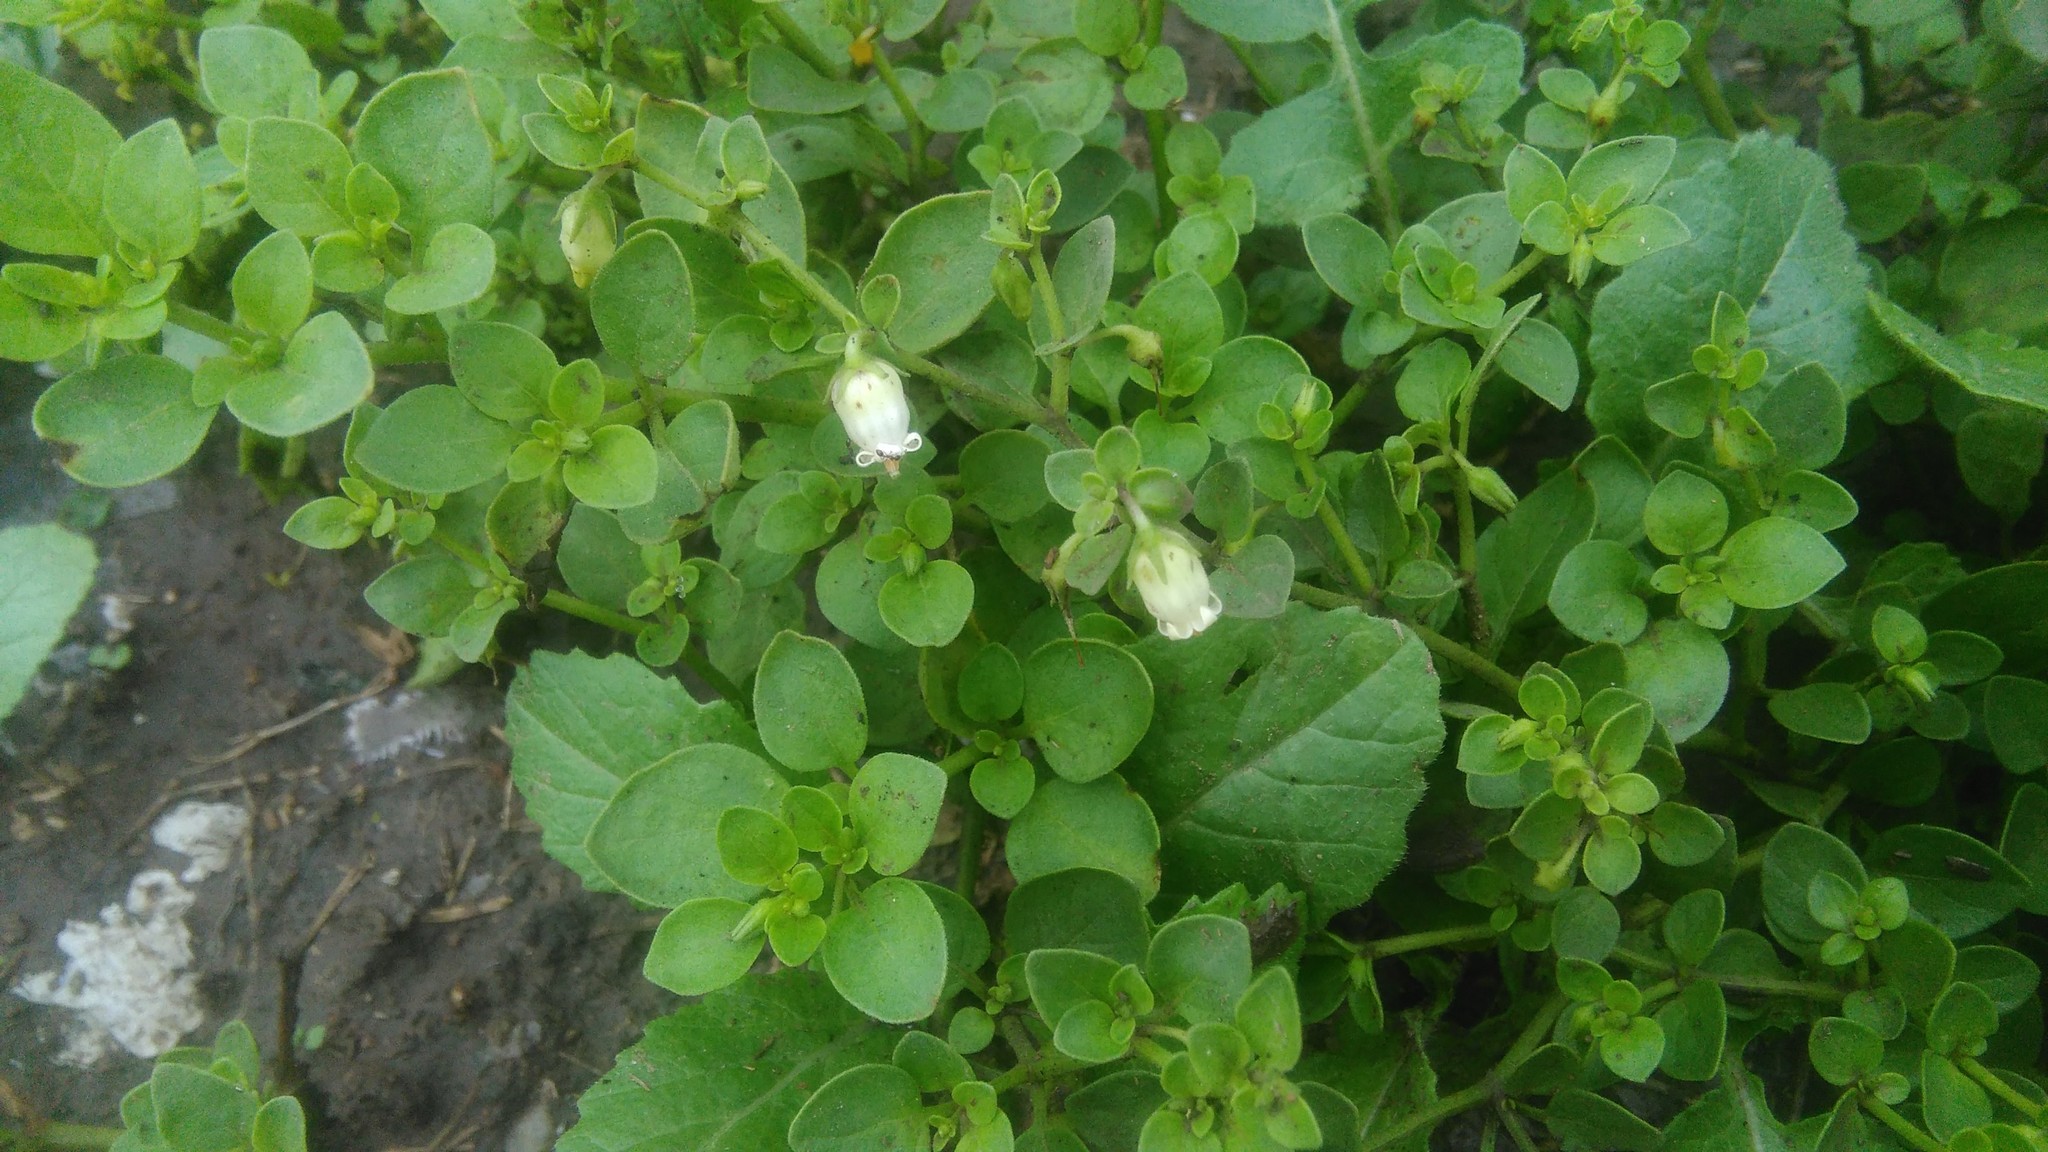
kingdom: Plantae
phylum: Tracheophyta
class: Magnoliopsida
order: Solanales
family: Solanaceae
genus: Salpichroa
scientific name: Salpichroa origanifolia
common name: Lily-of-the-valley-vine
